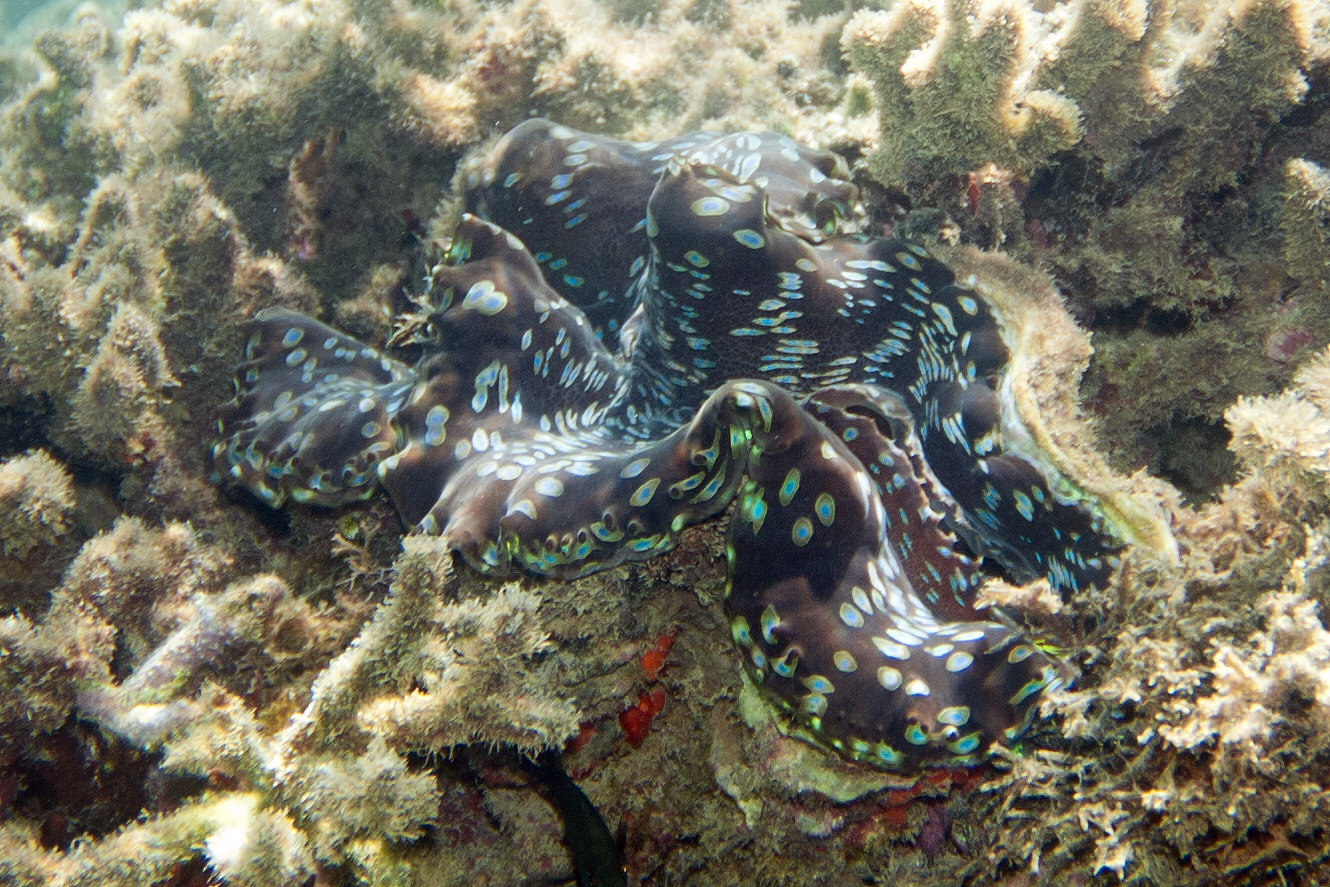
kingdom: Animalia
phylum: Mollusca
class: Bivalvia
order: Cardiida
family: Cardiidae
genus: Tridacna
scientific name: Tridacna squamosa
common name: Fluted clam
